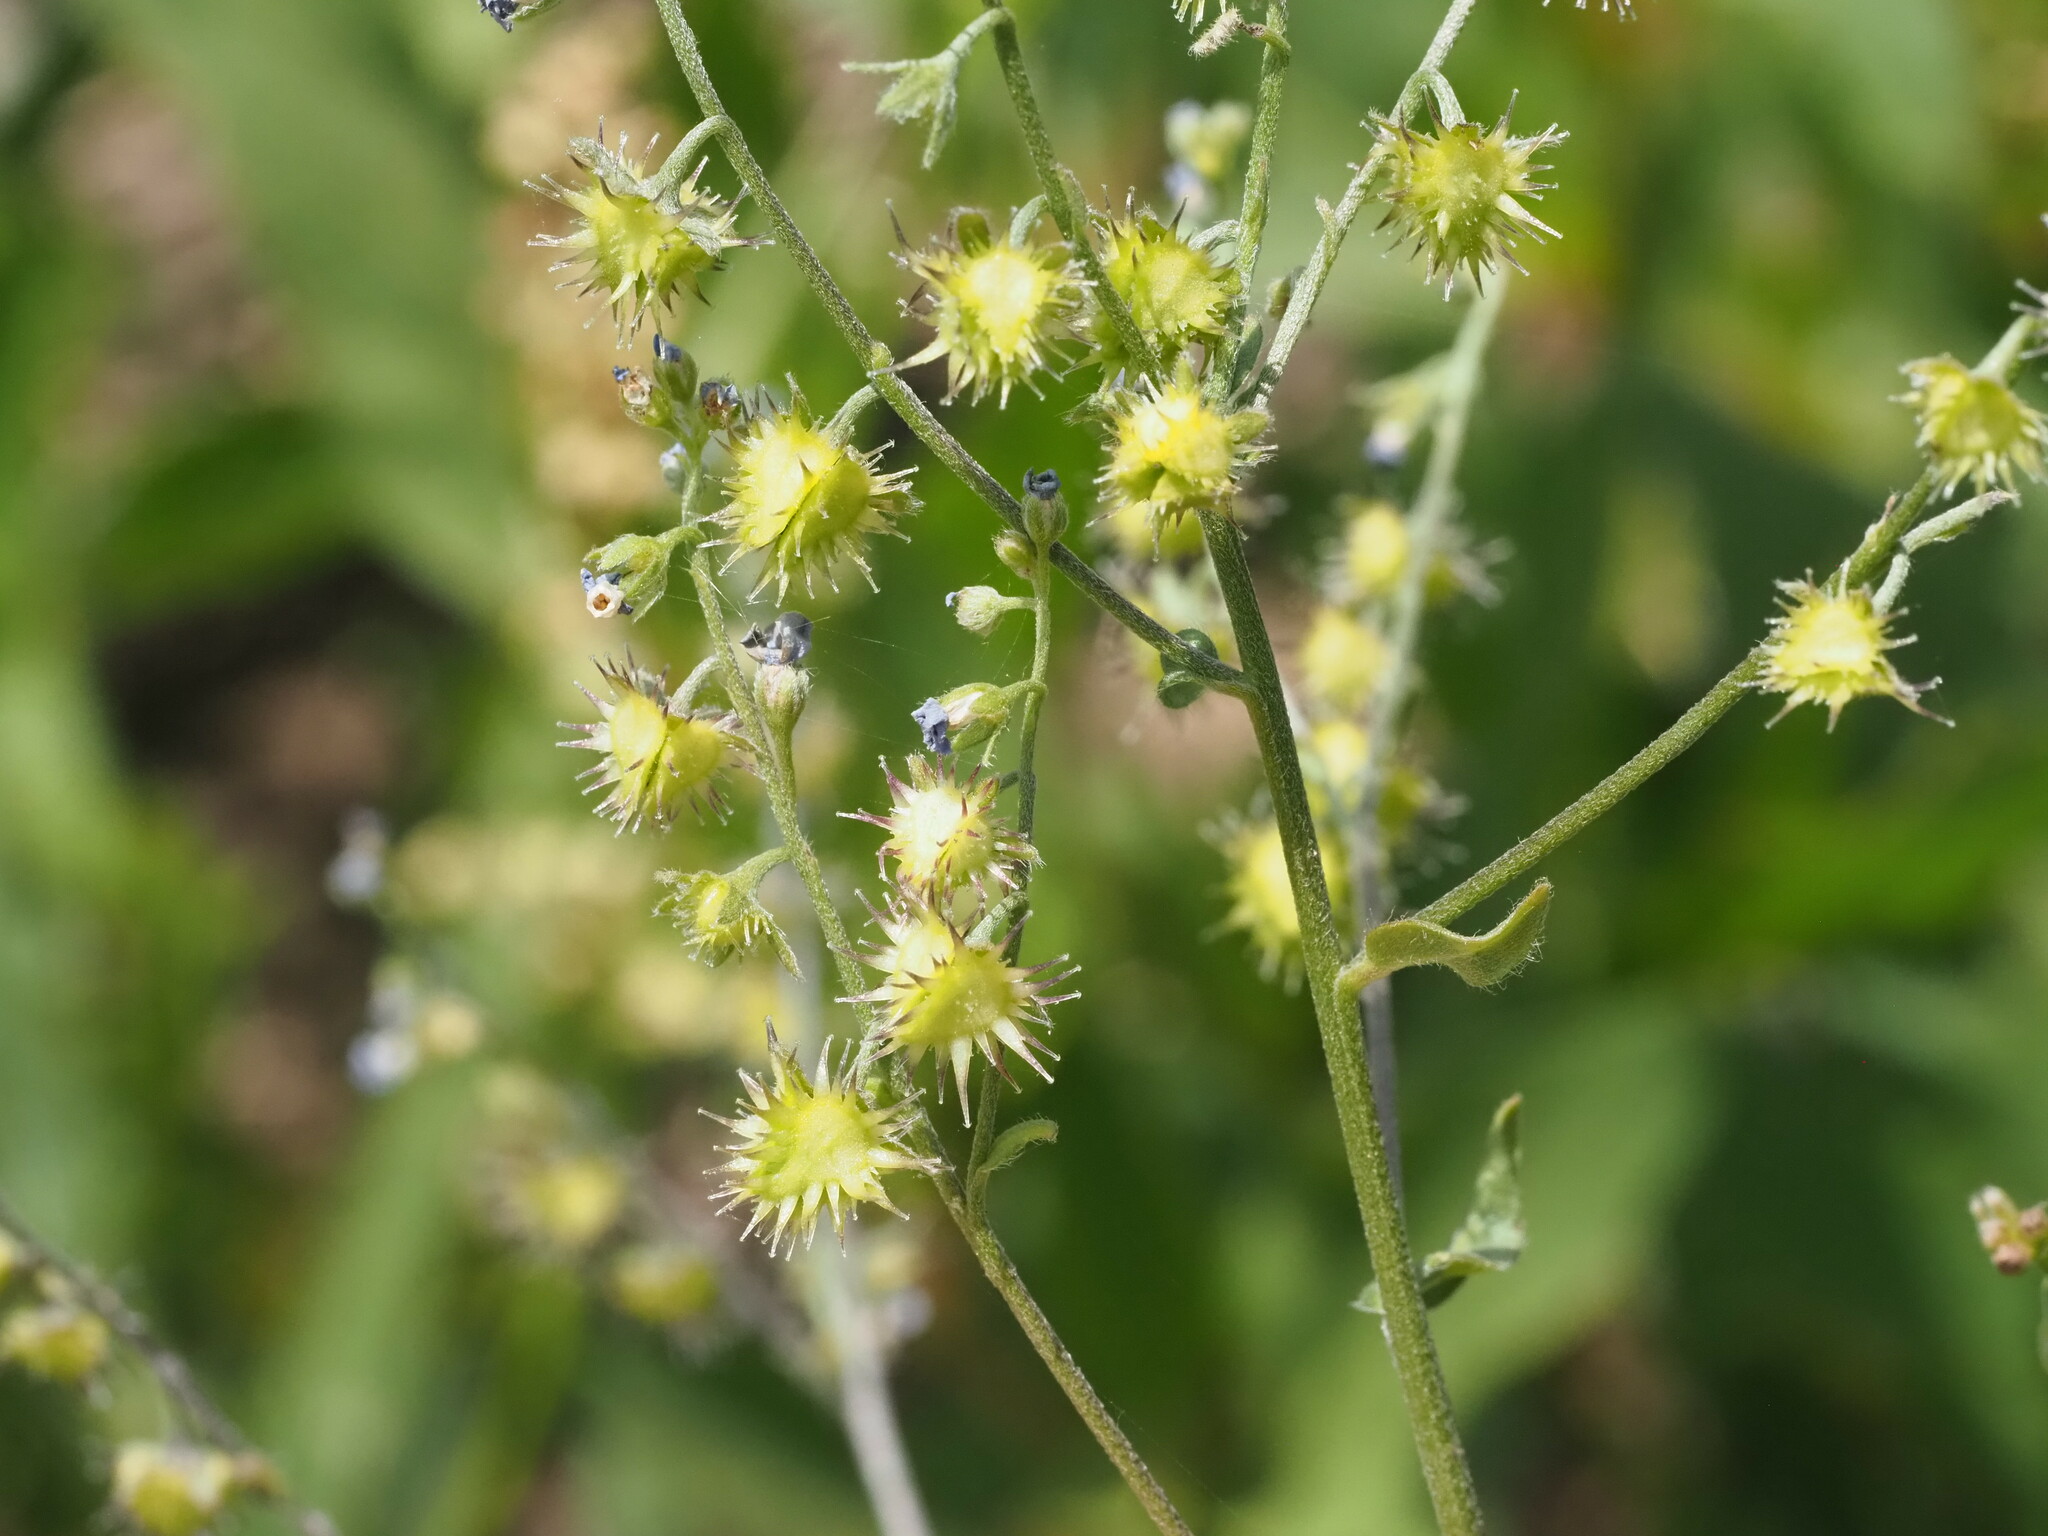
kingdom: Plantae
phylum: Tracheophyta
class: Magnoliopsida
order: Boraginales
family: Boraginaceae
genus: Hackelia
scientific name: Hackelia micrantha
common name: Meadow stickseed
